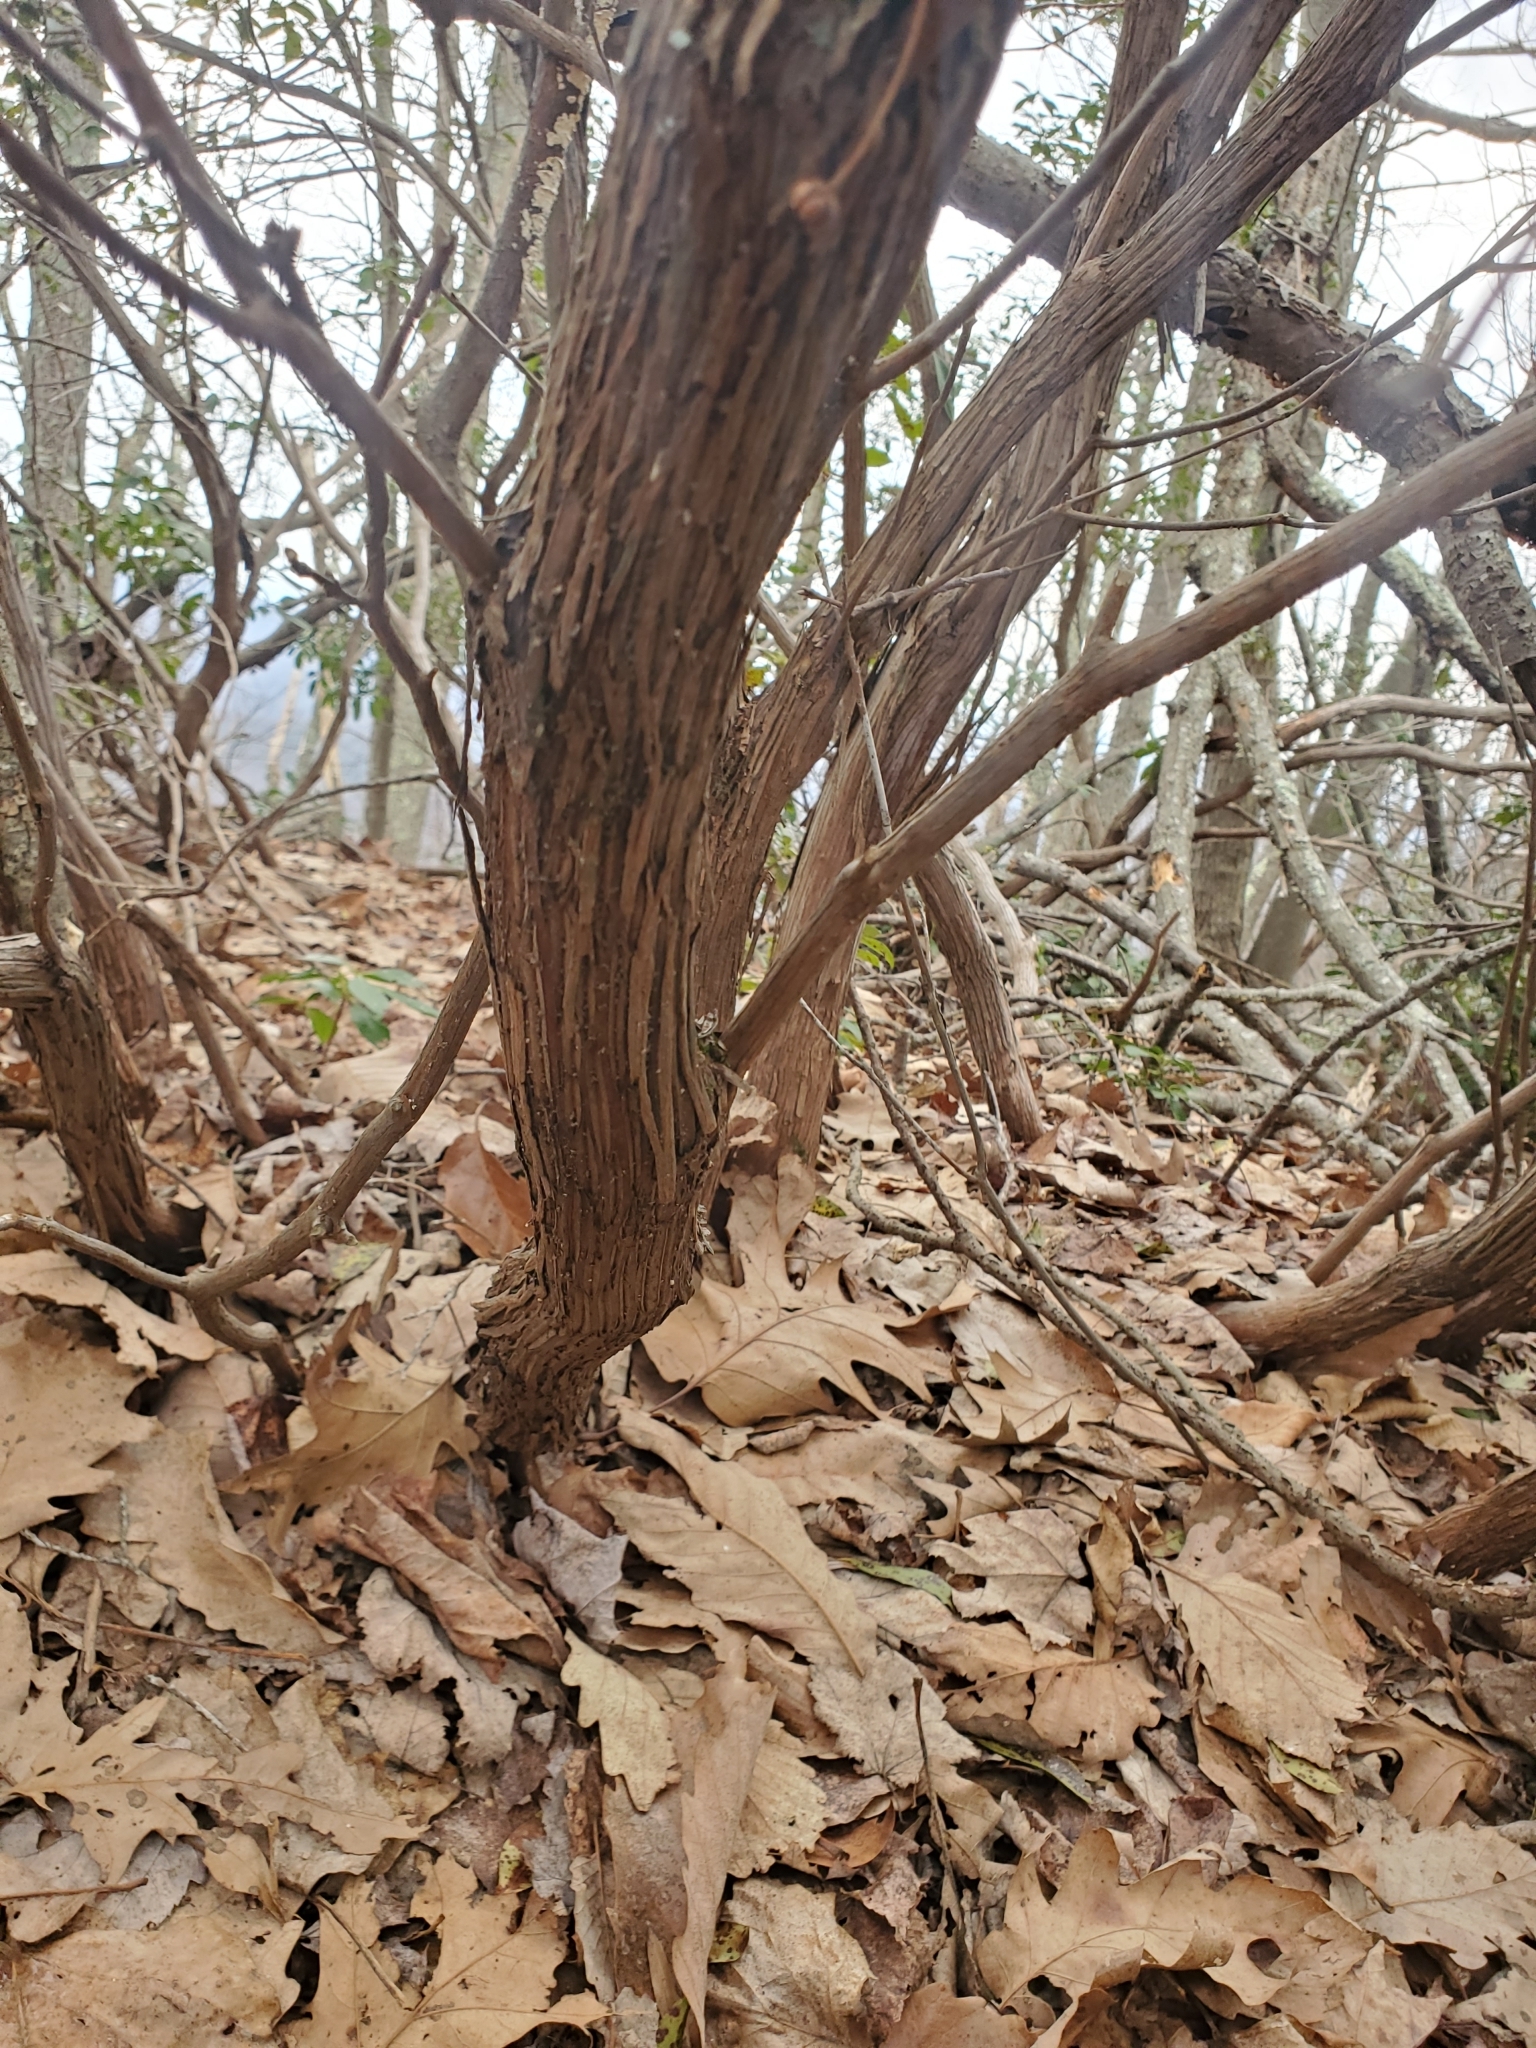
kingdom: Plantae
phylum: Tracheophyta
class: Magnoliopsida
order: Ericales
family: Ericaceae
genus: Kalmia
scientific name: Kalmia latifolia
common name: Mountain-laurel
